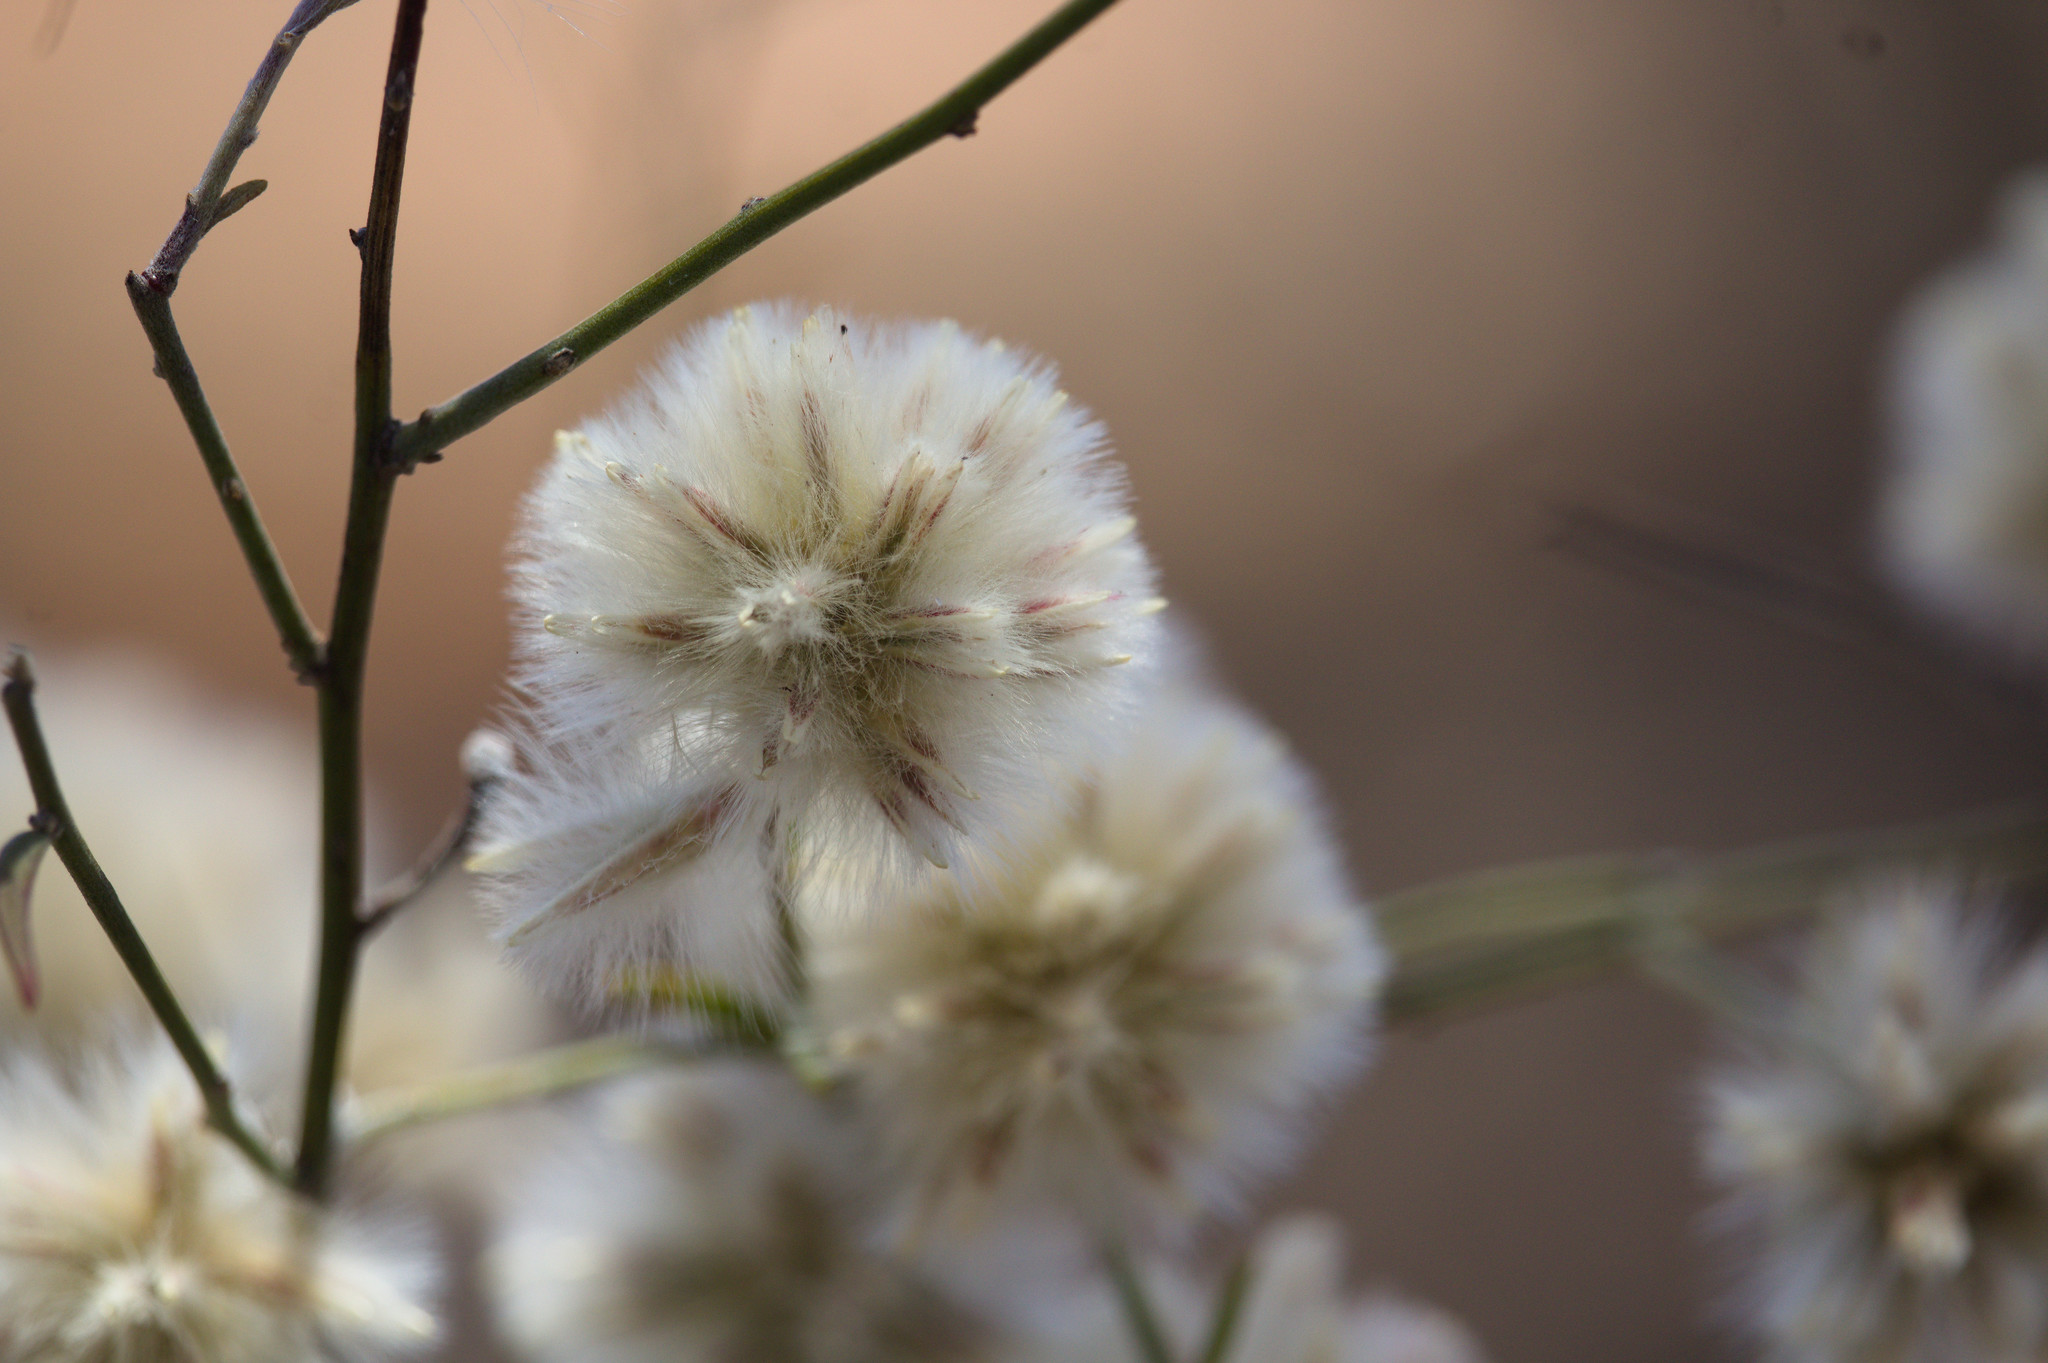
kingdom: Plantae
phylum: Tracheophyta
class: Magnoliopsida
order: Caryophyllales
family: Amaranthaceae
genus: Ptilotus
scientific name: Ptilotus divaricatus
